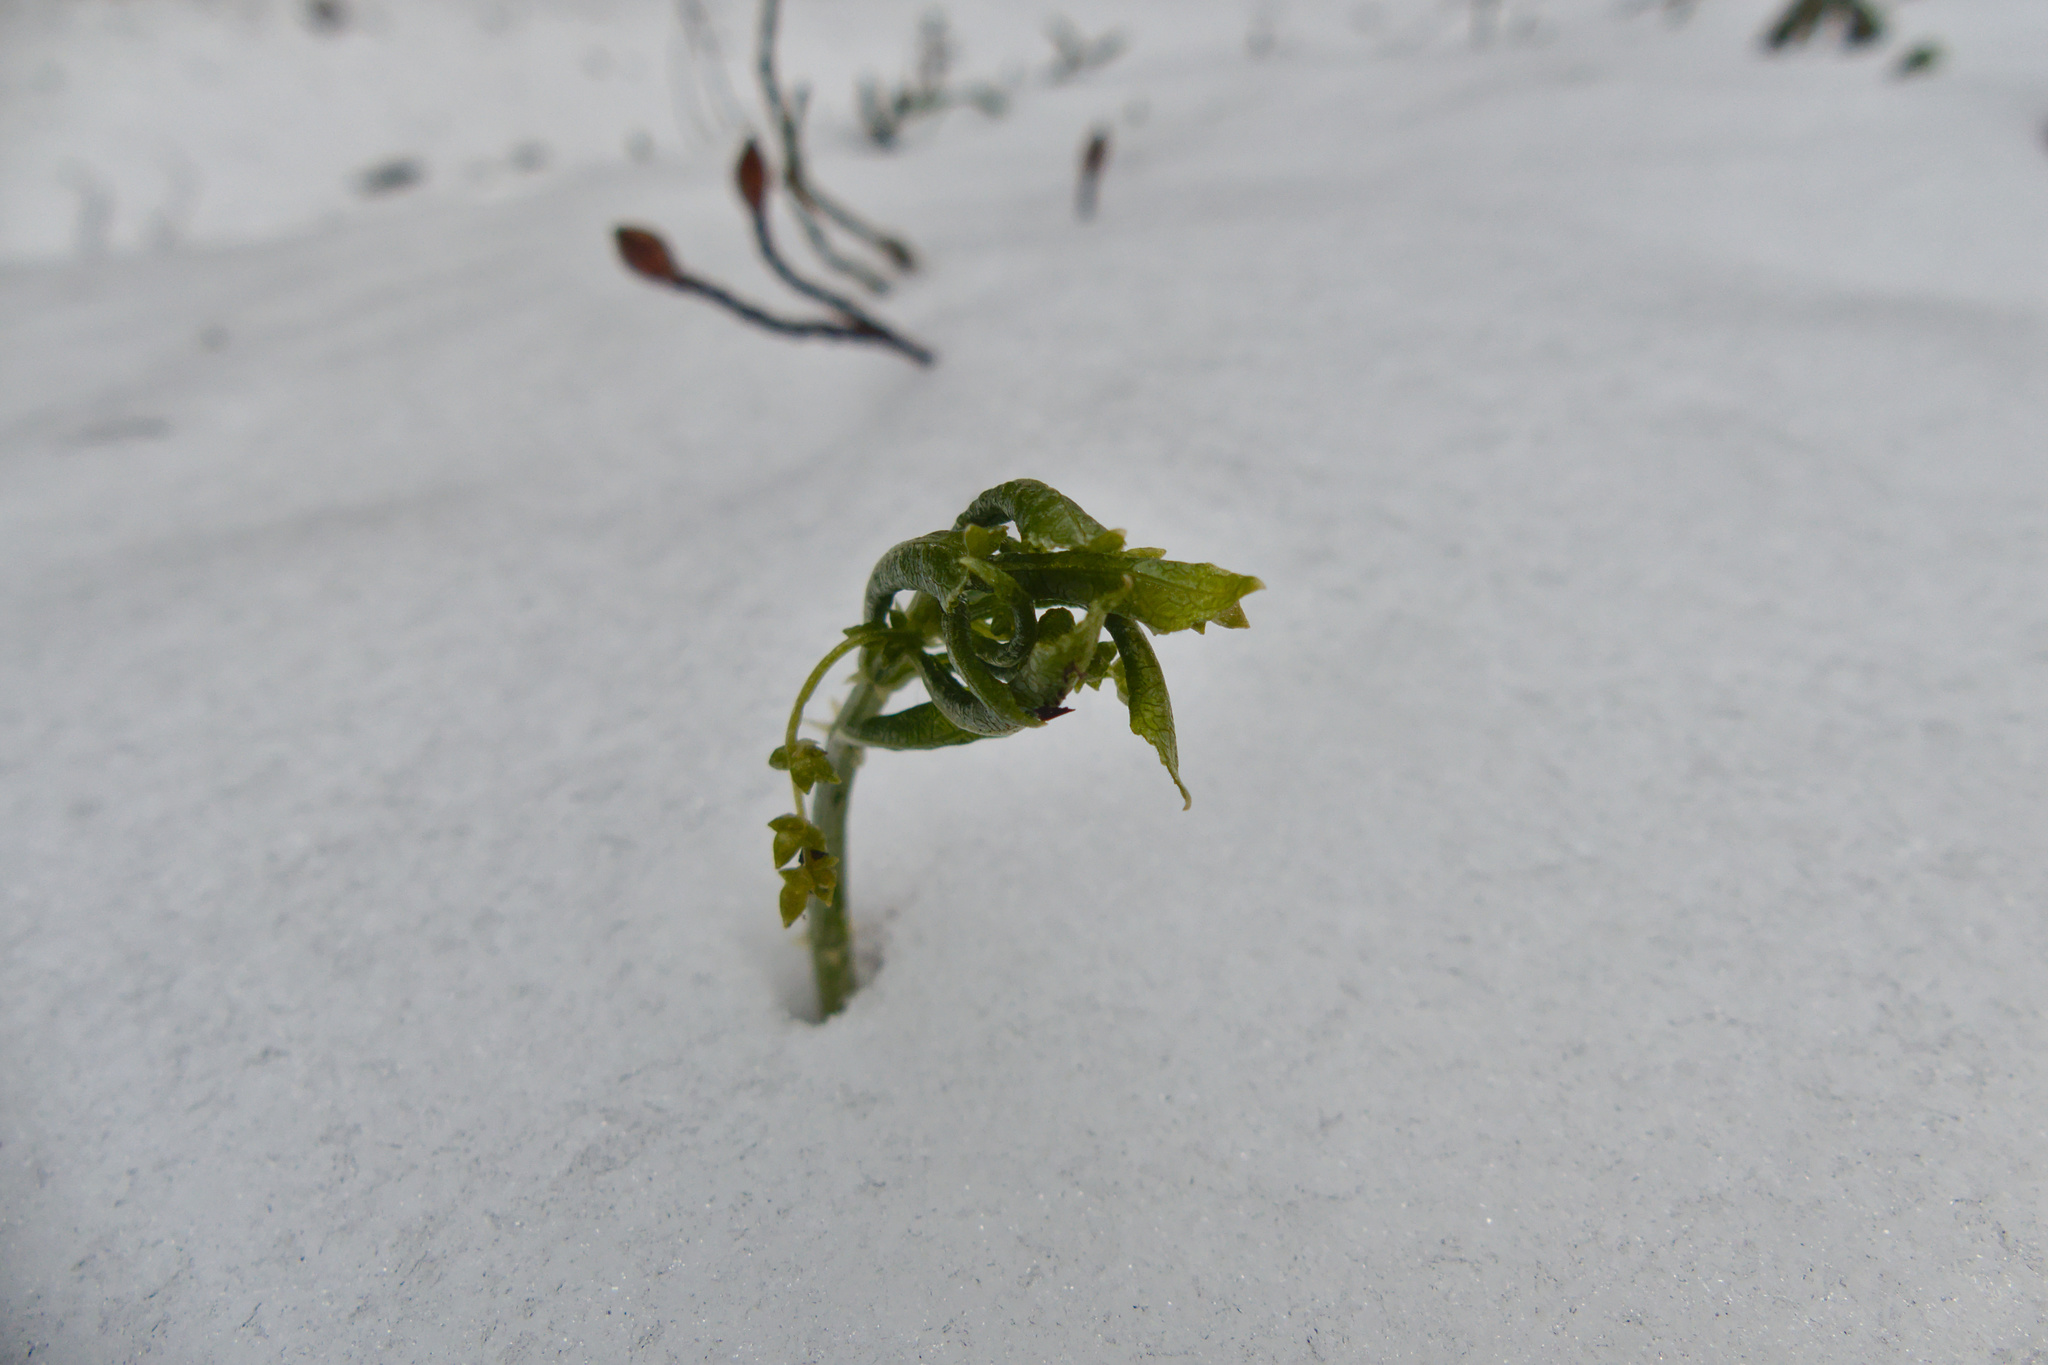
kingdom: Plantae
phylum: Tracheophyta
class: Magnoliopsida
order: Malpighiales
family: Euphorbiaceae
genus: Mercurialis
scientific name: Mercurialis perennis
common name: Dog mercury
